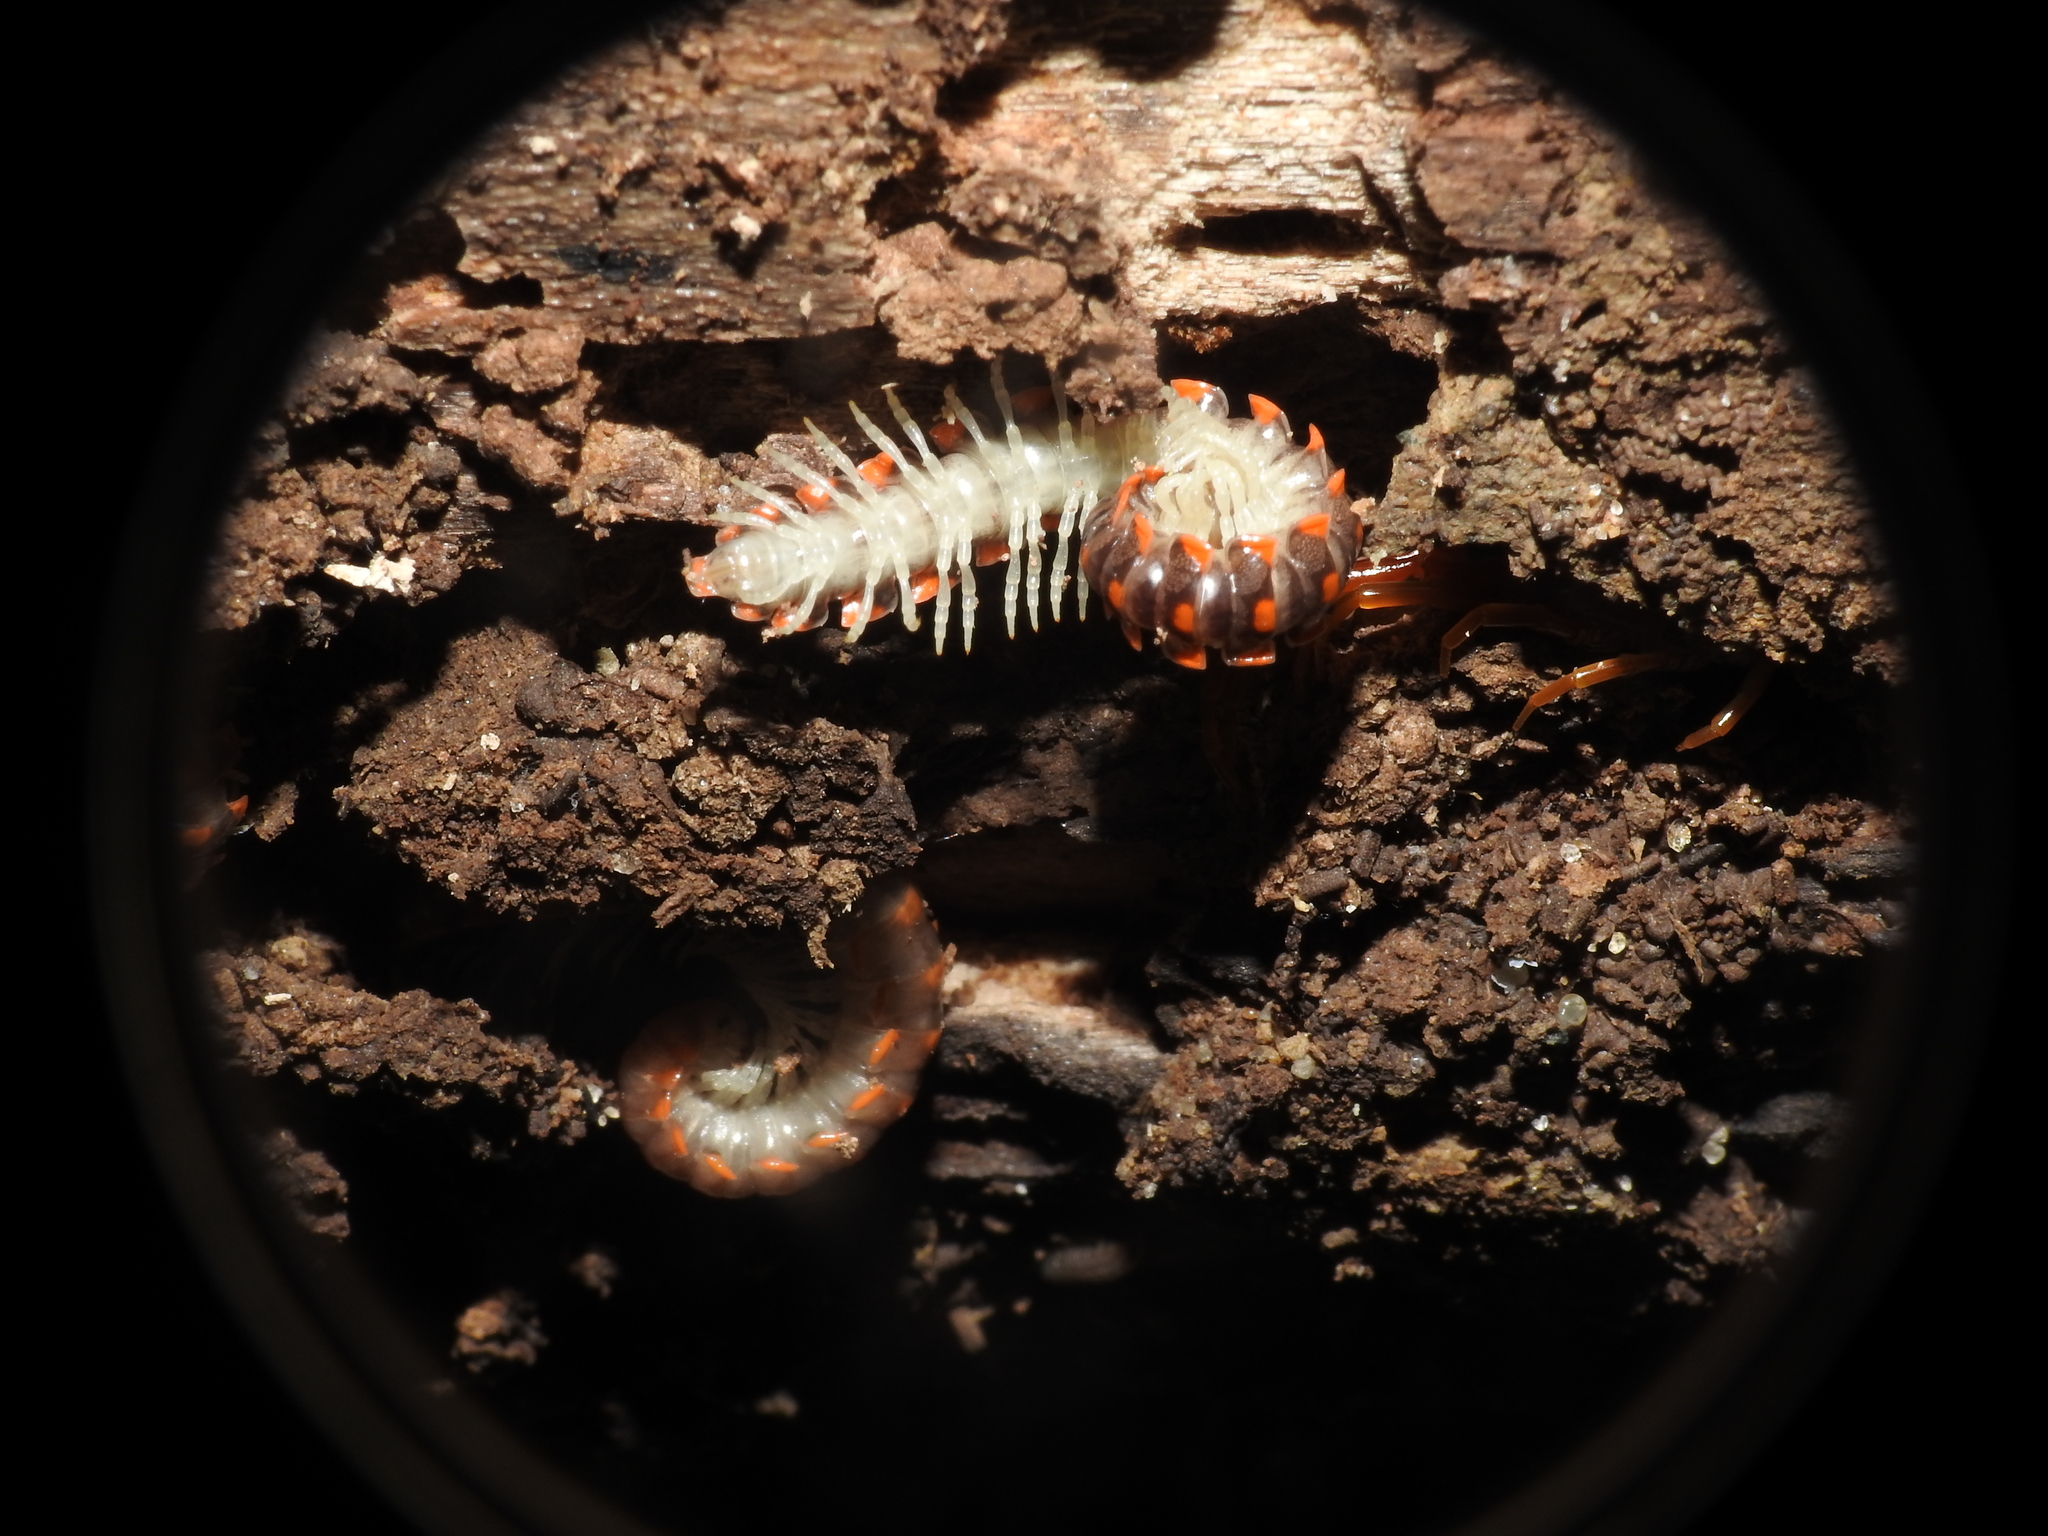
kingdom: Animalia
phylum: Arthropoda
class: Diplopoda
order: Polydesmida
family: Xystodesmidae
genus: Euryurus
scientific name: Euryurus leachii
